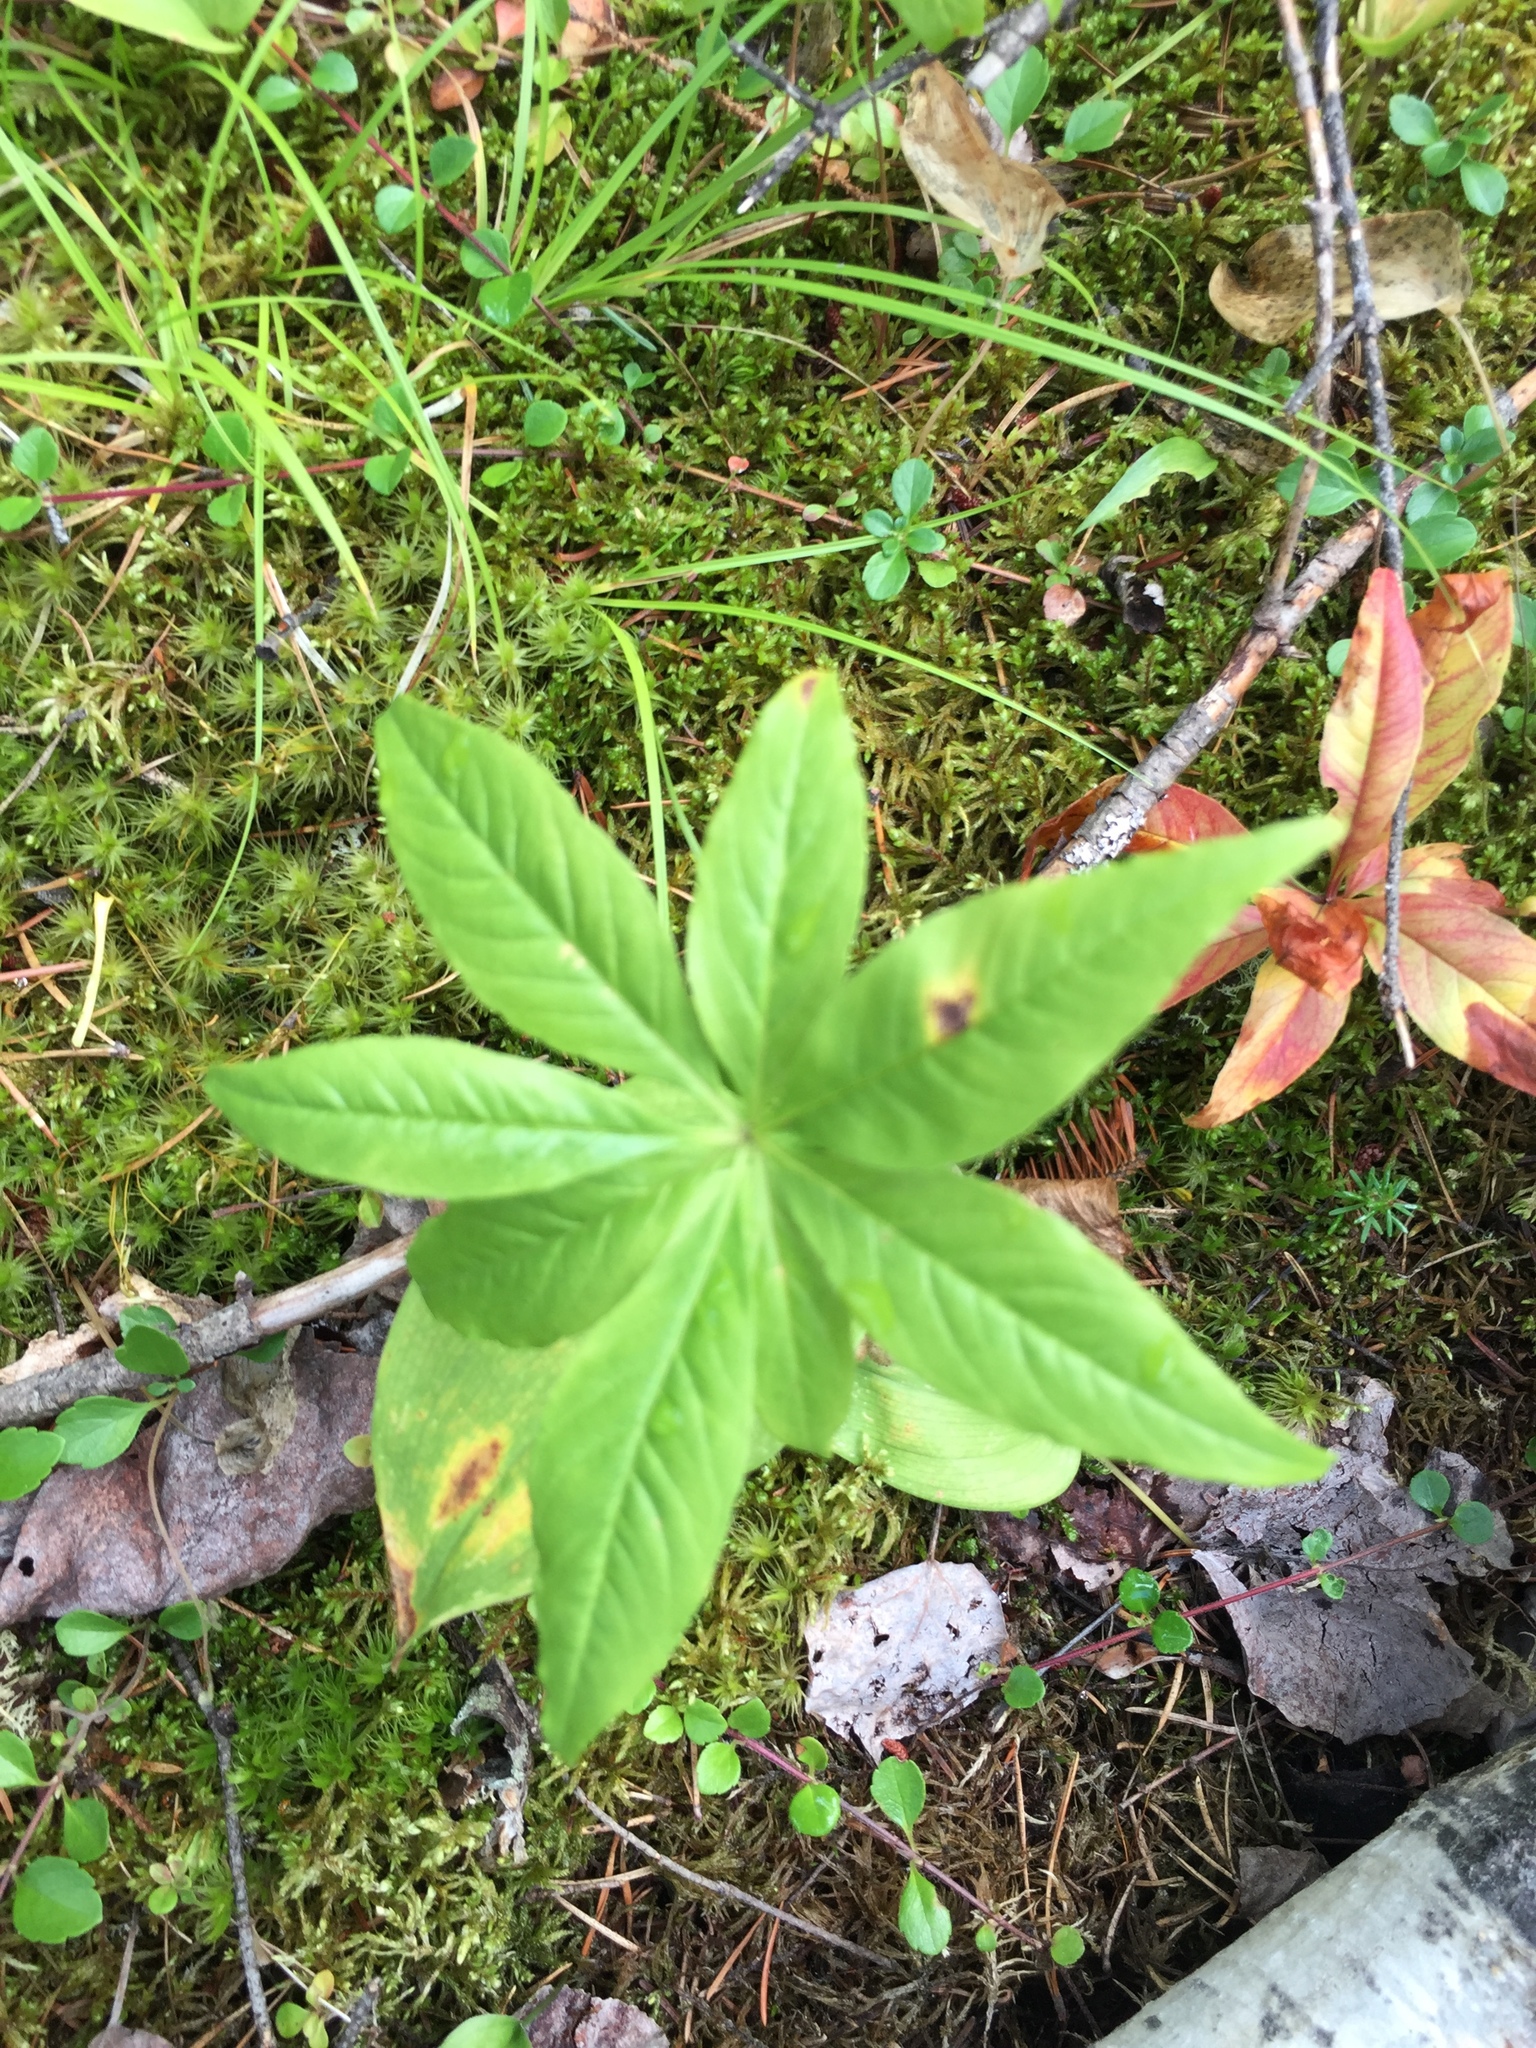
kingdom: Plantae
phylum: Tracheophyta
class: Magnoliopsida
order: Ericales
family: Primulaceae
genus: Lysimachia
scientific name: Lysimachia borealis
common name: American starflower
